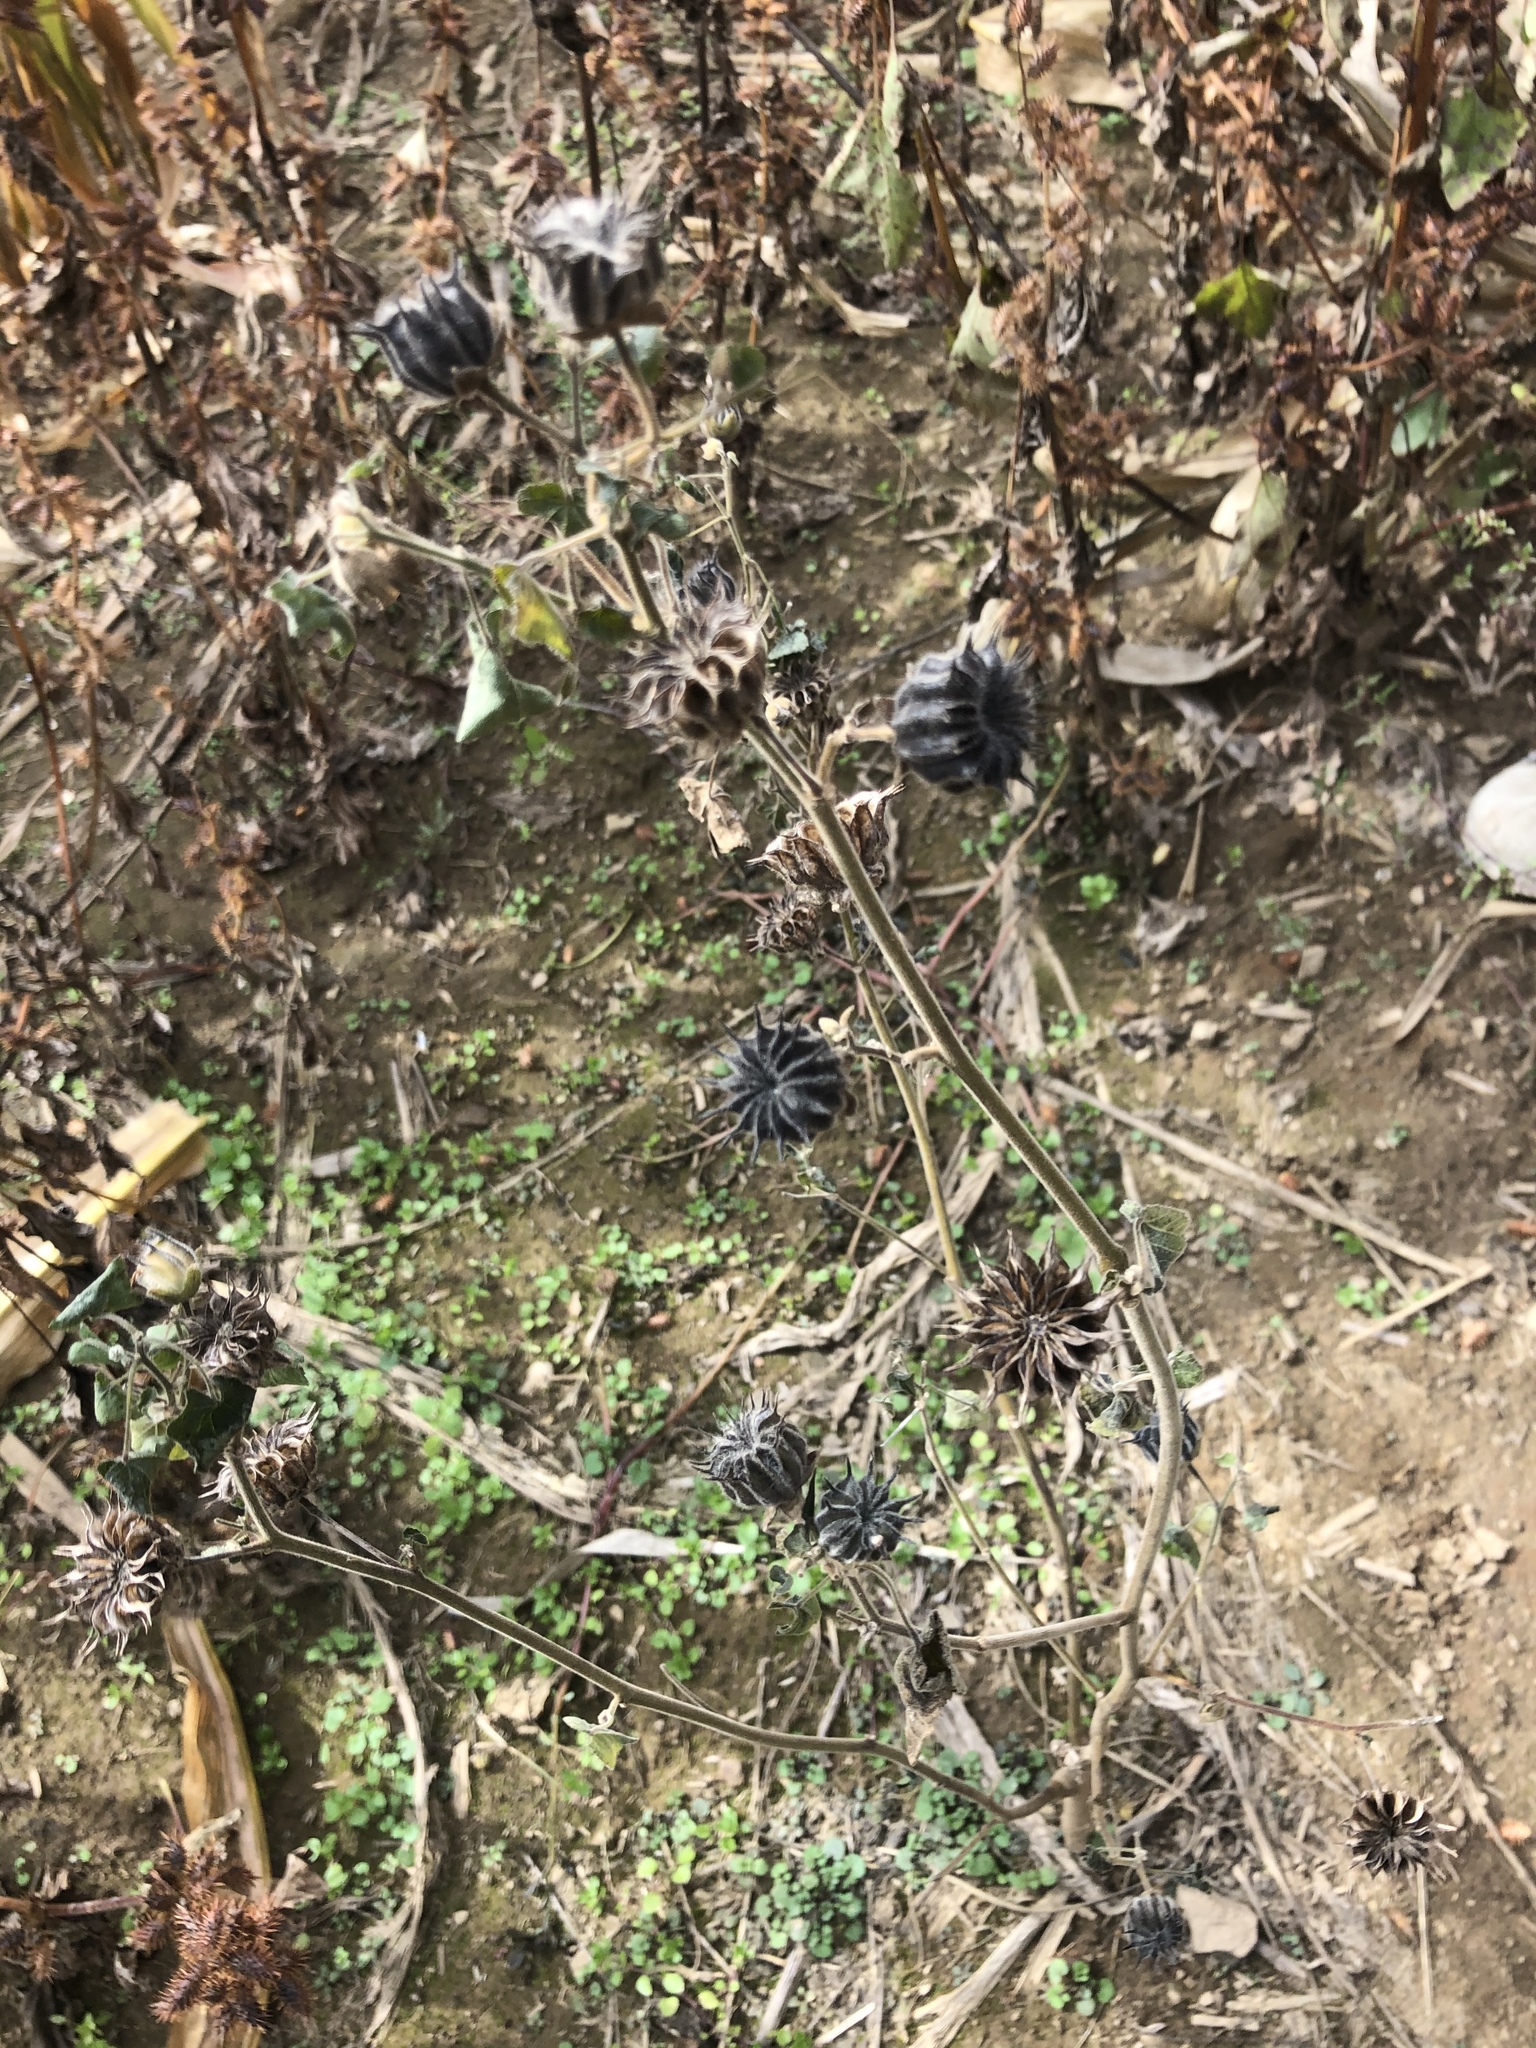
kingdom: Plantae
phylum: Tracheophyta
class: Magnoliopsida
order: Malvales
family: Malvaceae
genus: Abutilon
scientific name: Abutilon theophrasti
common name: Velvetleaf
